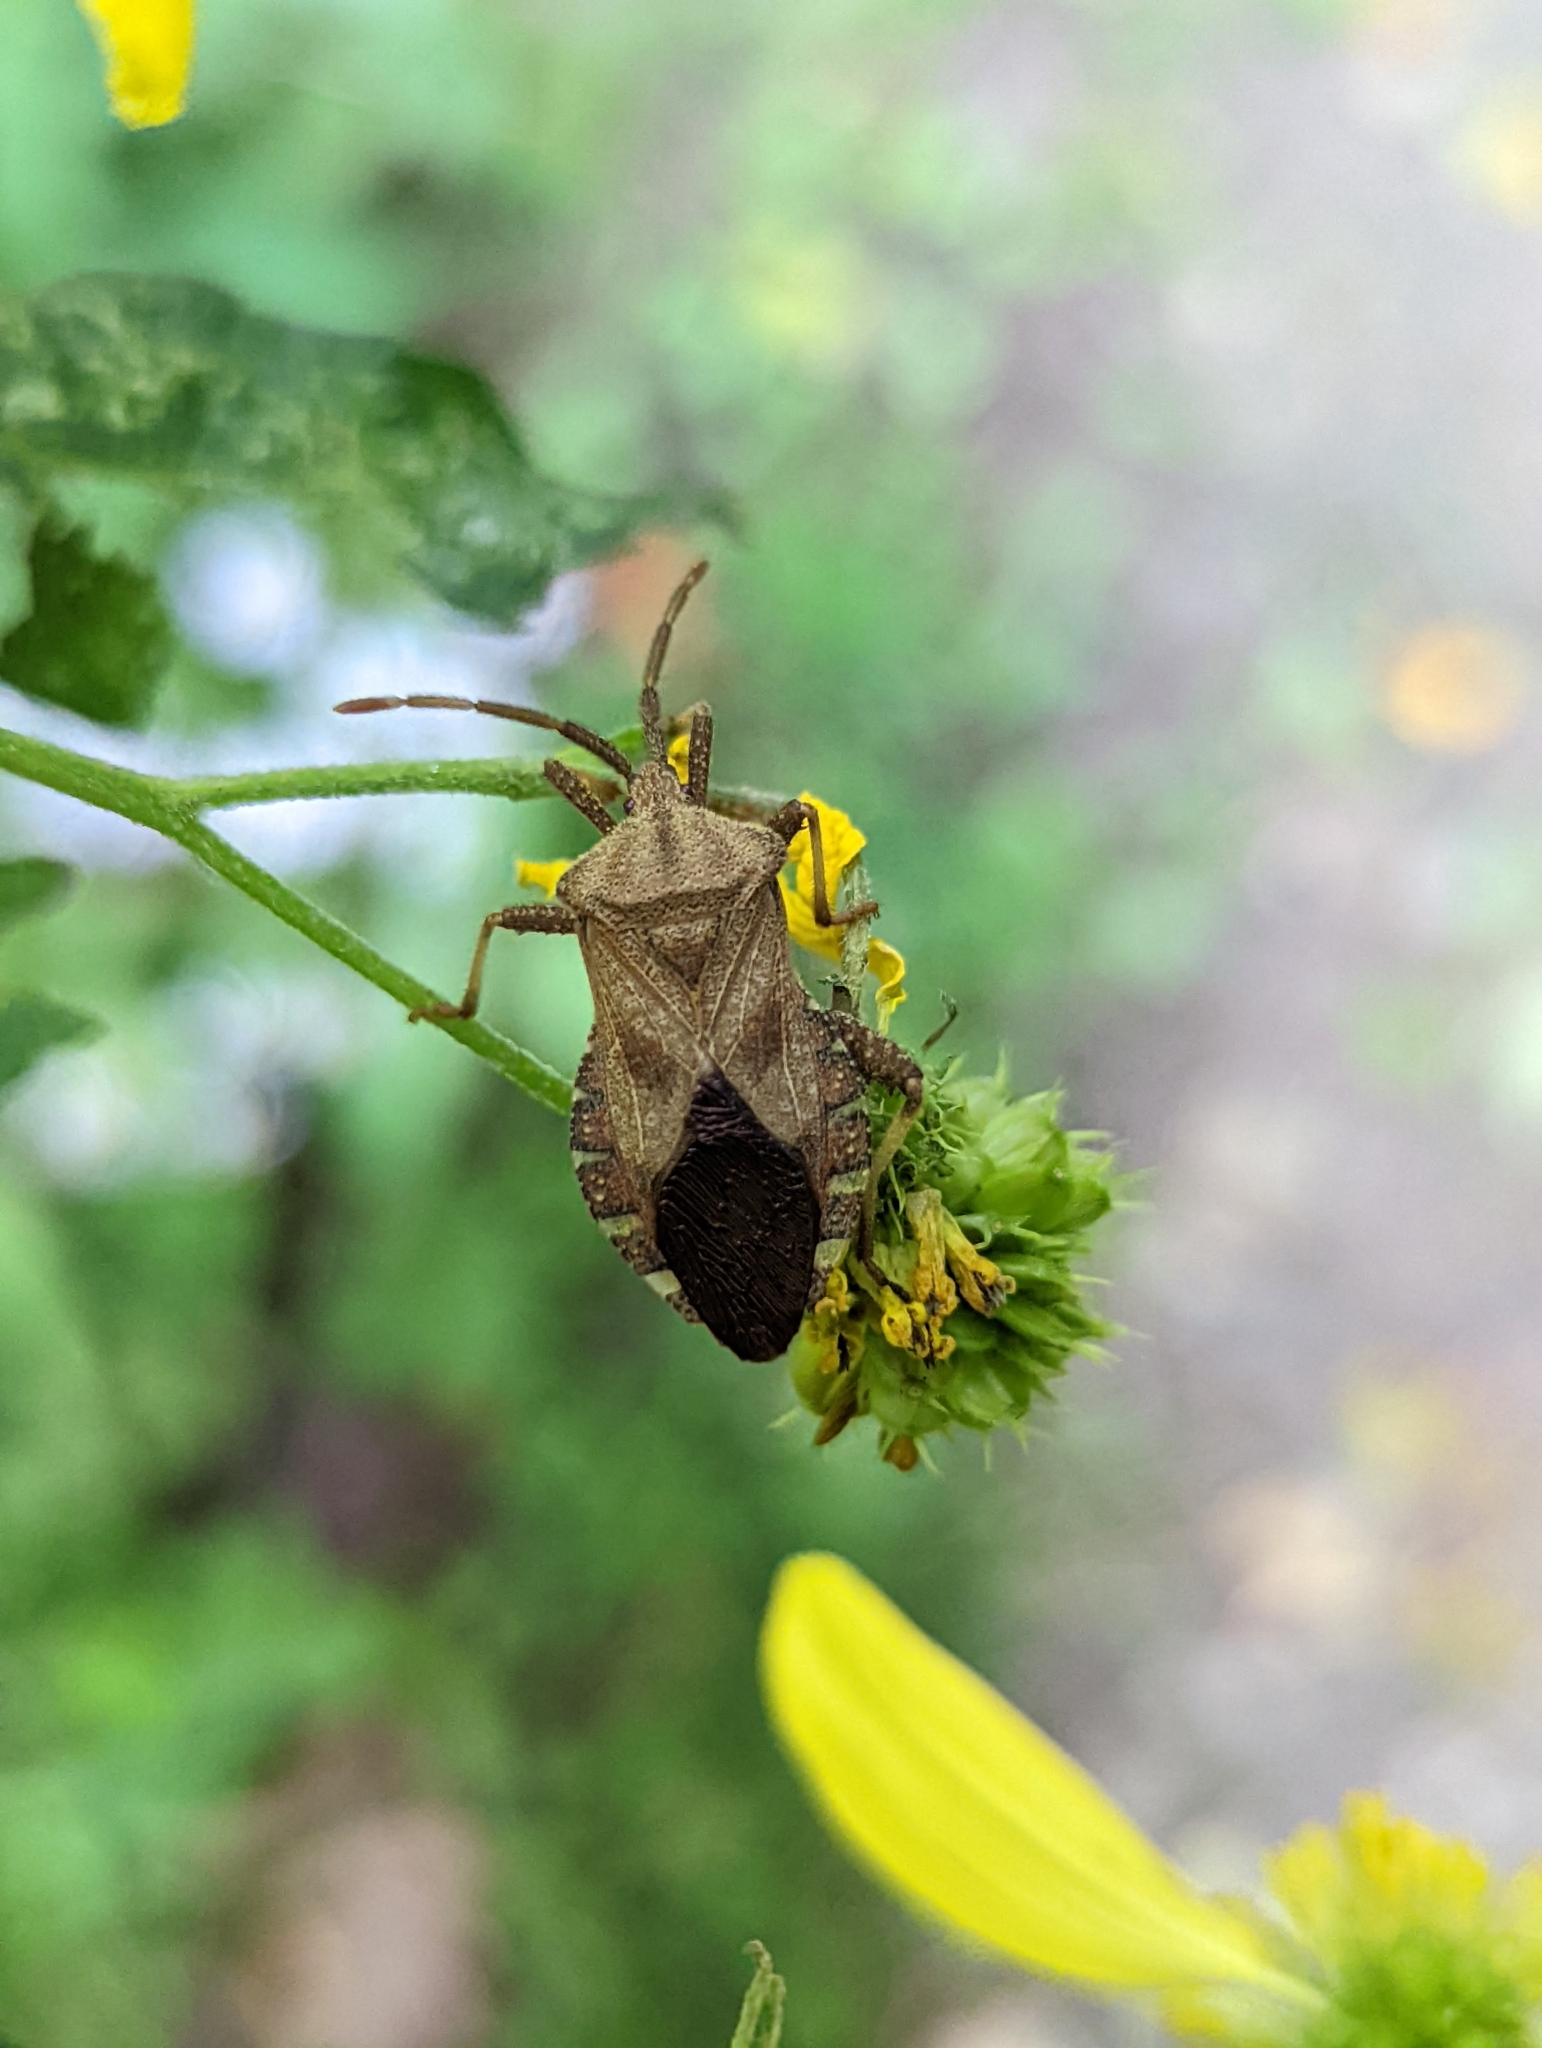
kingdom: Animalia
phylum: Arthropoda
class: Insecta
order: Hemiptera
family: Coreidae
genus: Piezogaster
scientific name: Piezogaster calcarator
